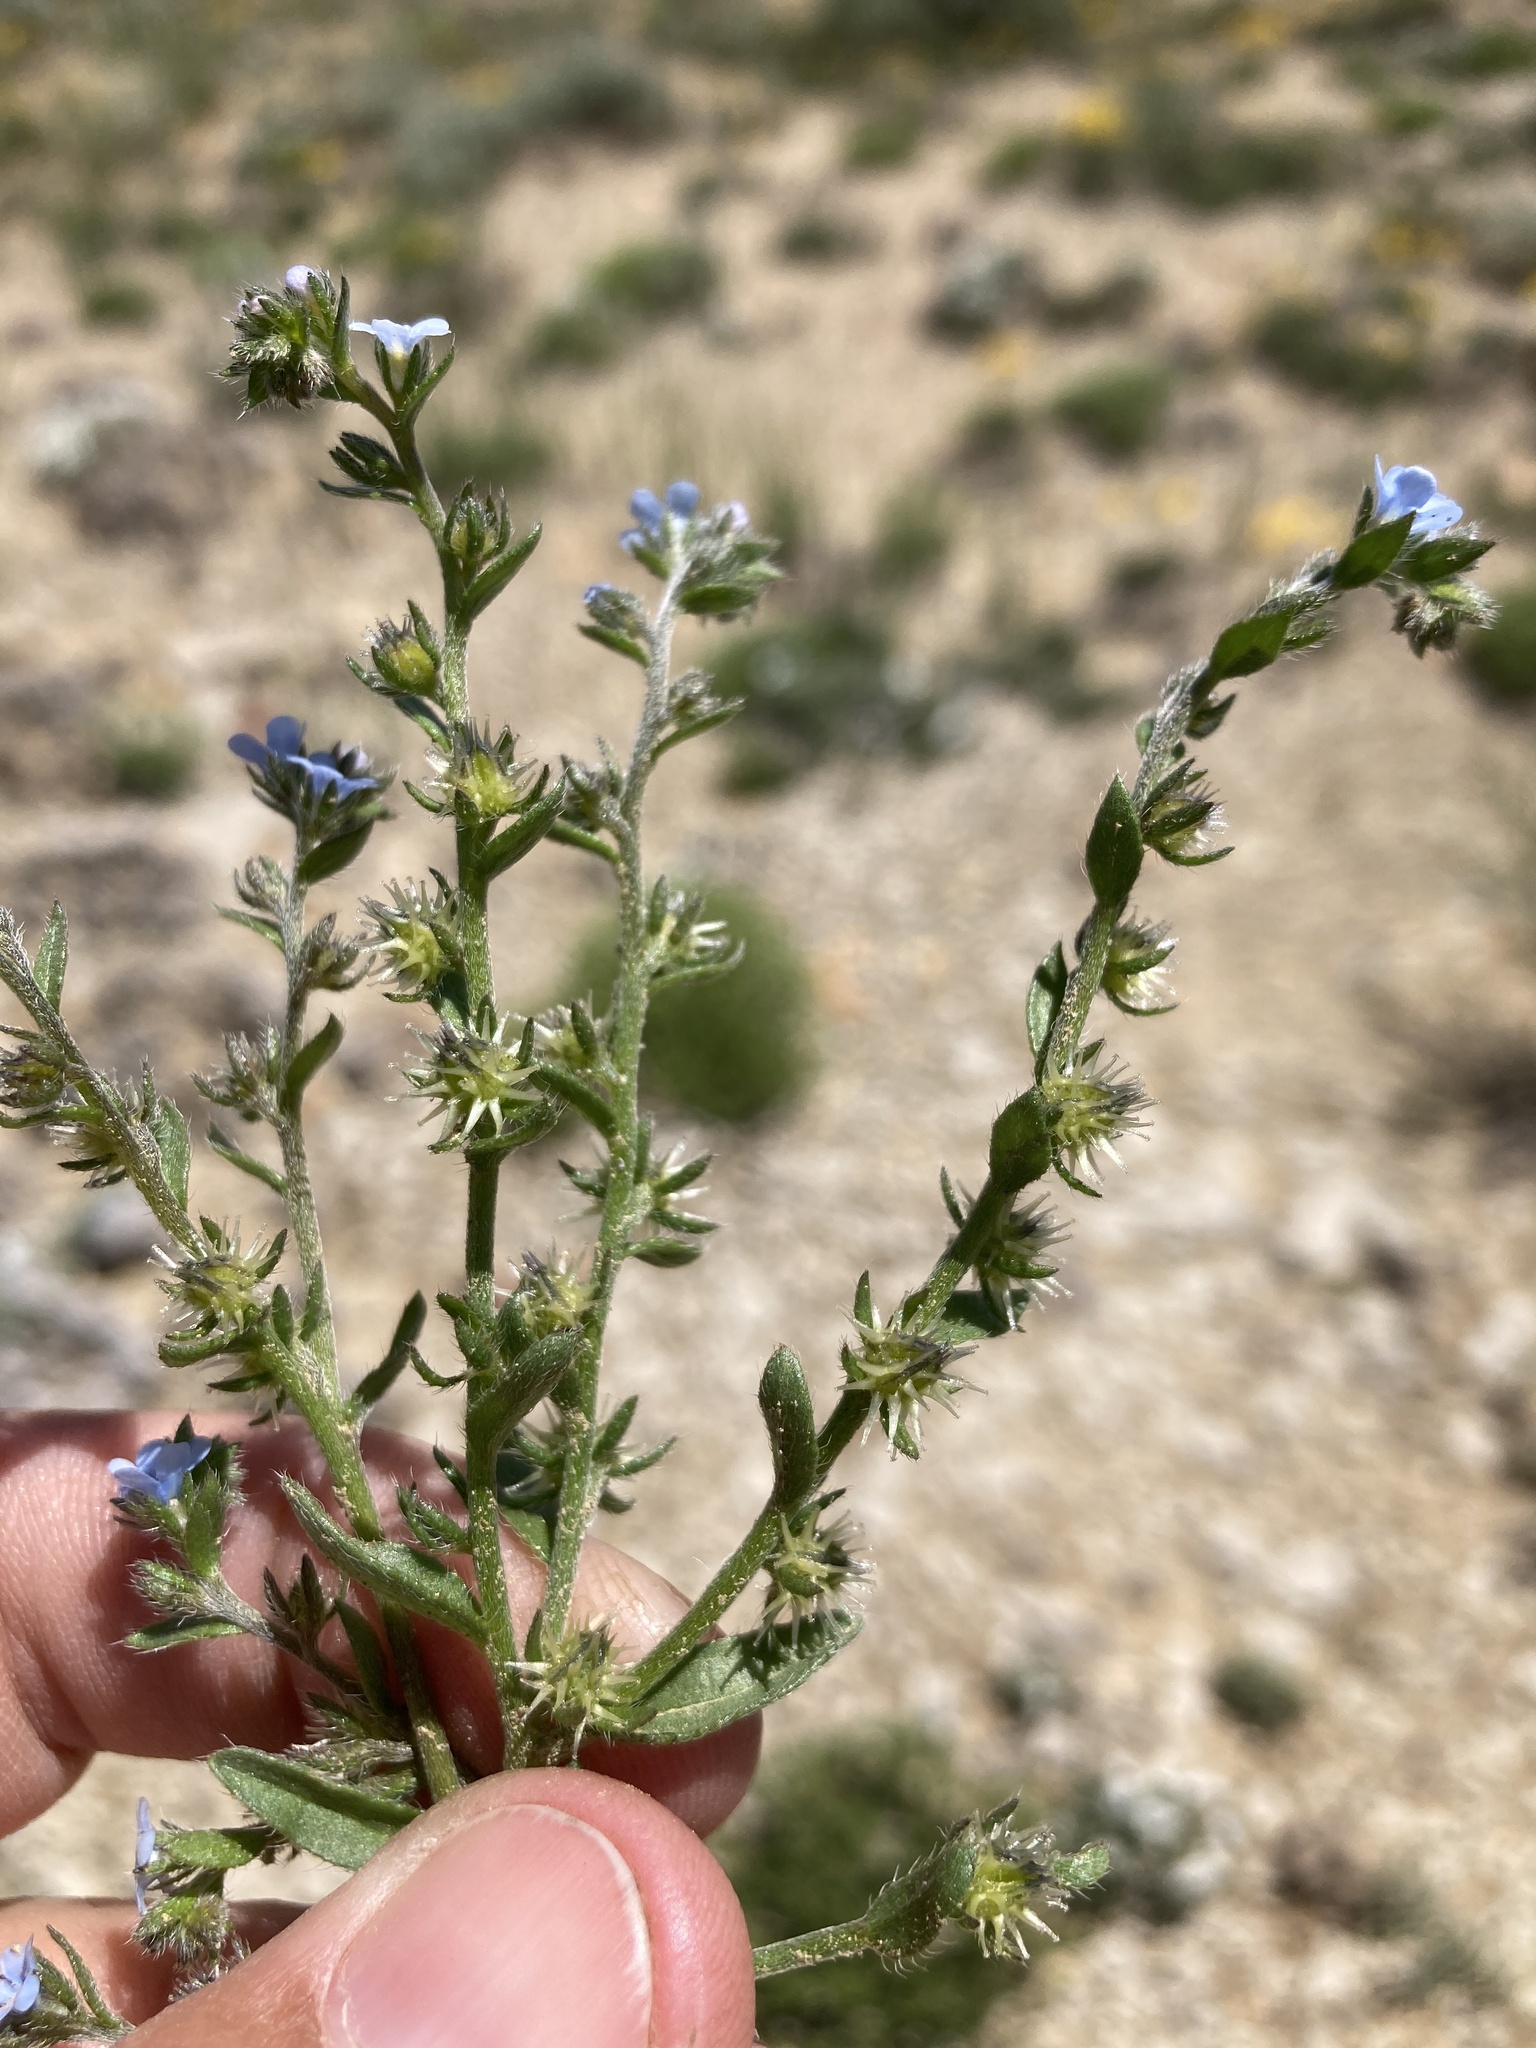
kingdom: Plantae
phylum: Tracheophyta
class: Magnoliopsida
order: Boraginales
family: Boraginaceae
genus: Lappula
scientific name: Lappula occidentalis
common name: Western stickseed
